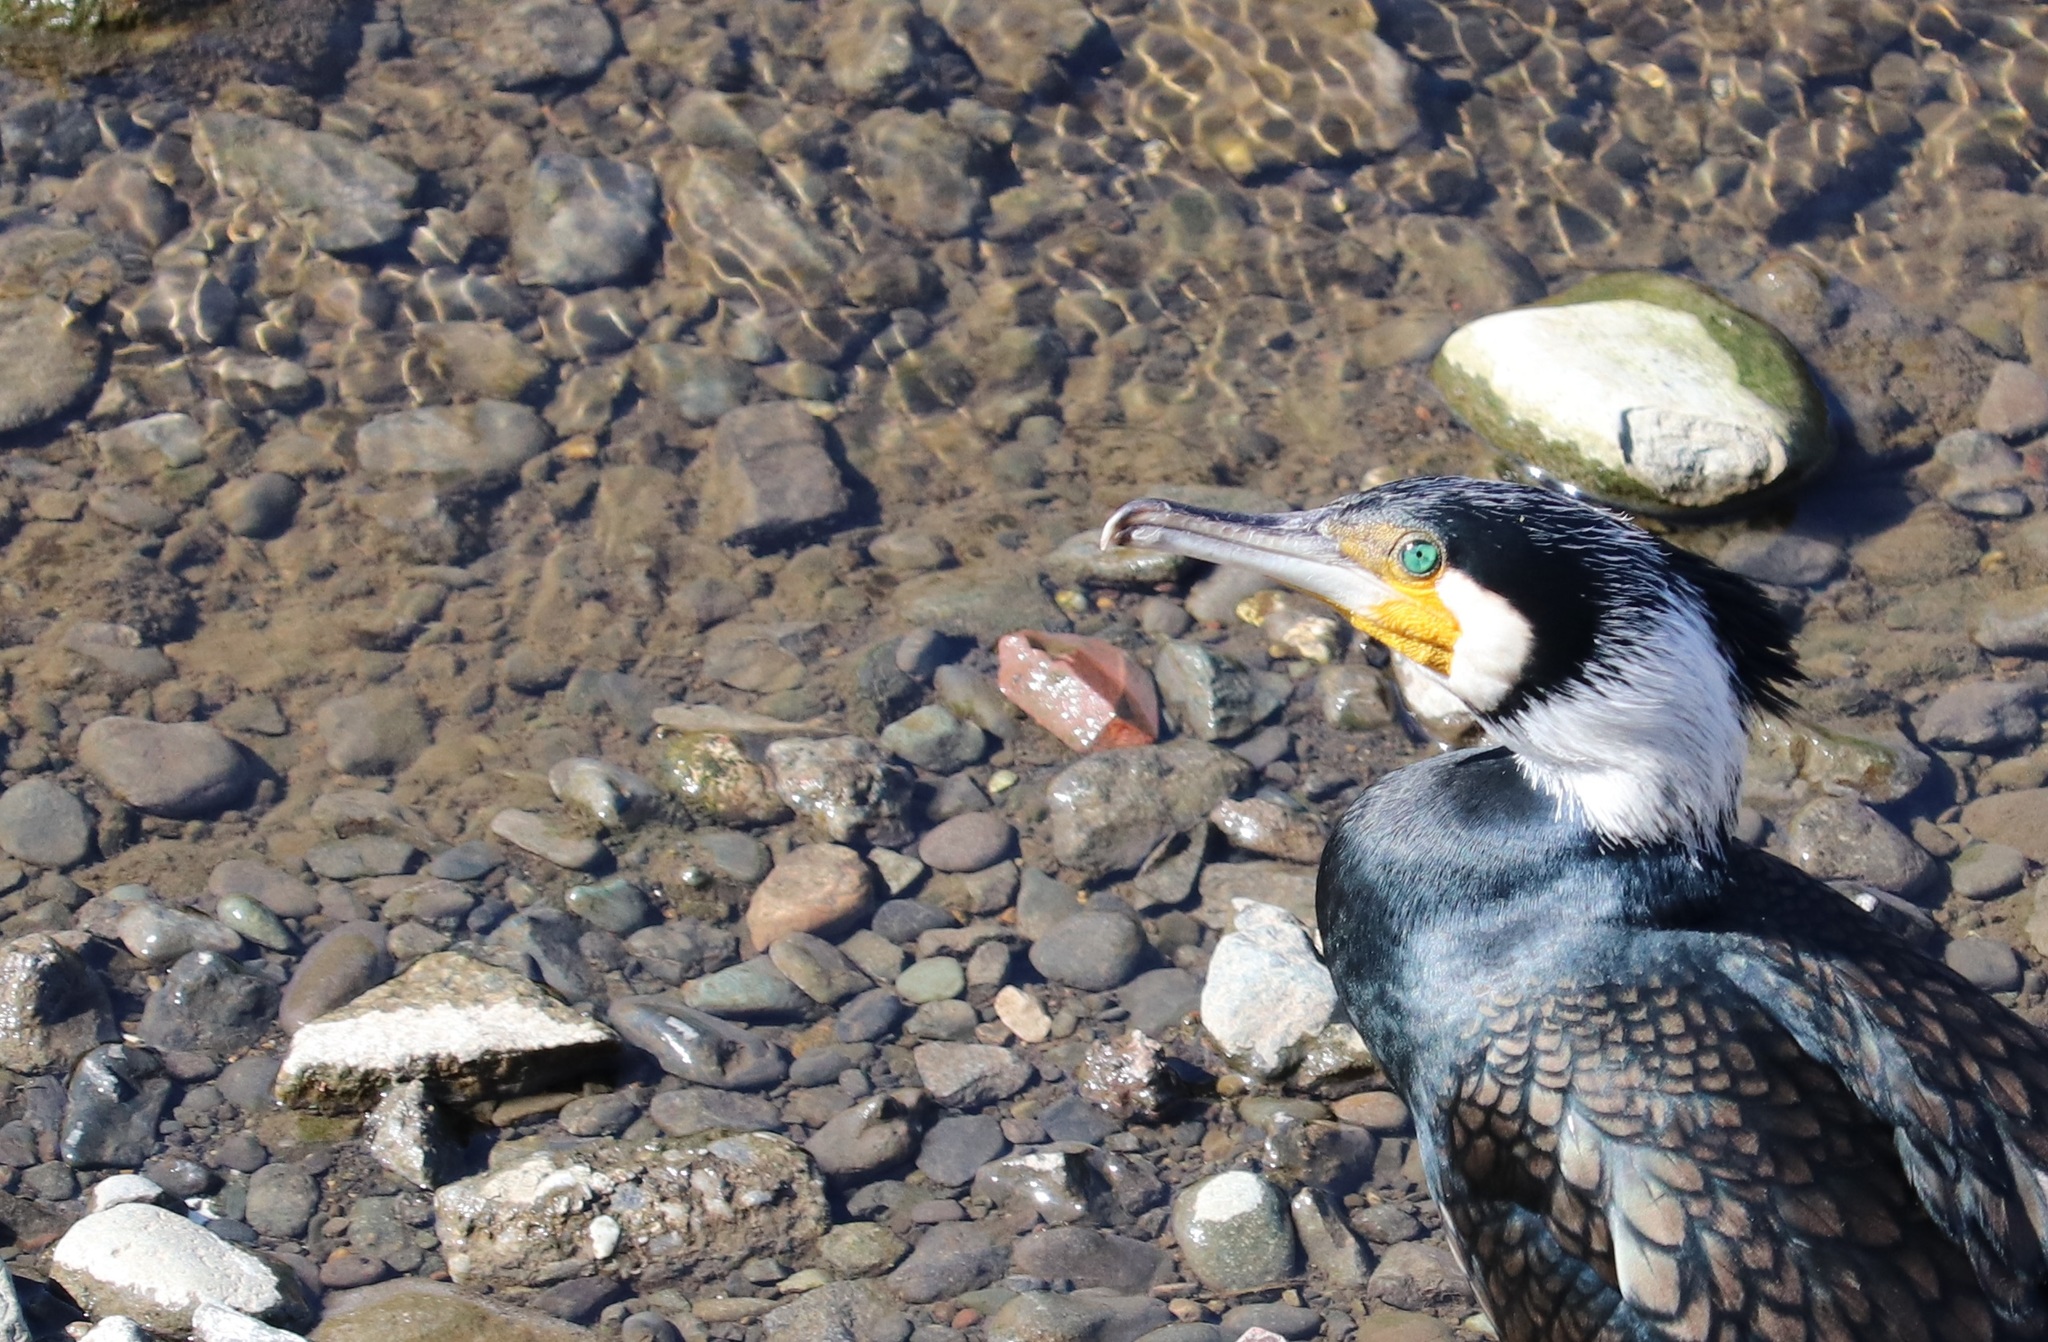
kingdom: Animalia
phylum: Chordata
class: Aves
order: Suliformes
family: Phalacrocoracidae
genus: Phalacrocorax
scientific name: Phalacrocorax carbo
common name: Great cormorant
